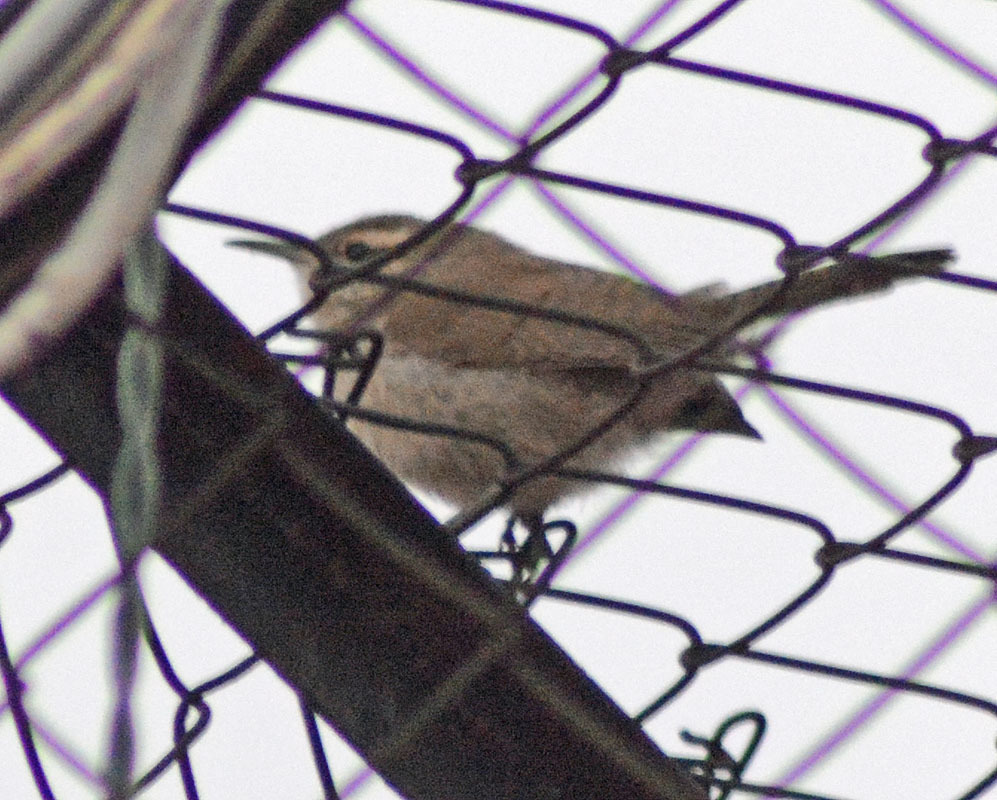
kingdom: Animalia
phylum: Chordata
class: Aves
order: Passeriformes
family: Troglodytidae
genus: Thryomanes
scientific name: Thryomanes bewickii
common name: Bewick's wren
